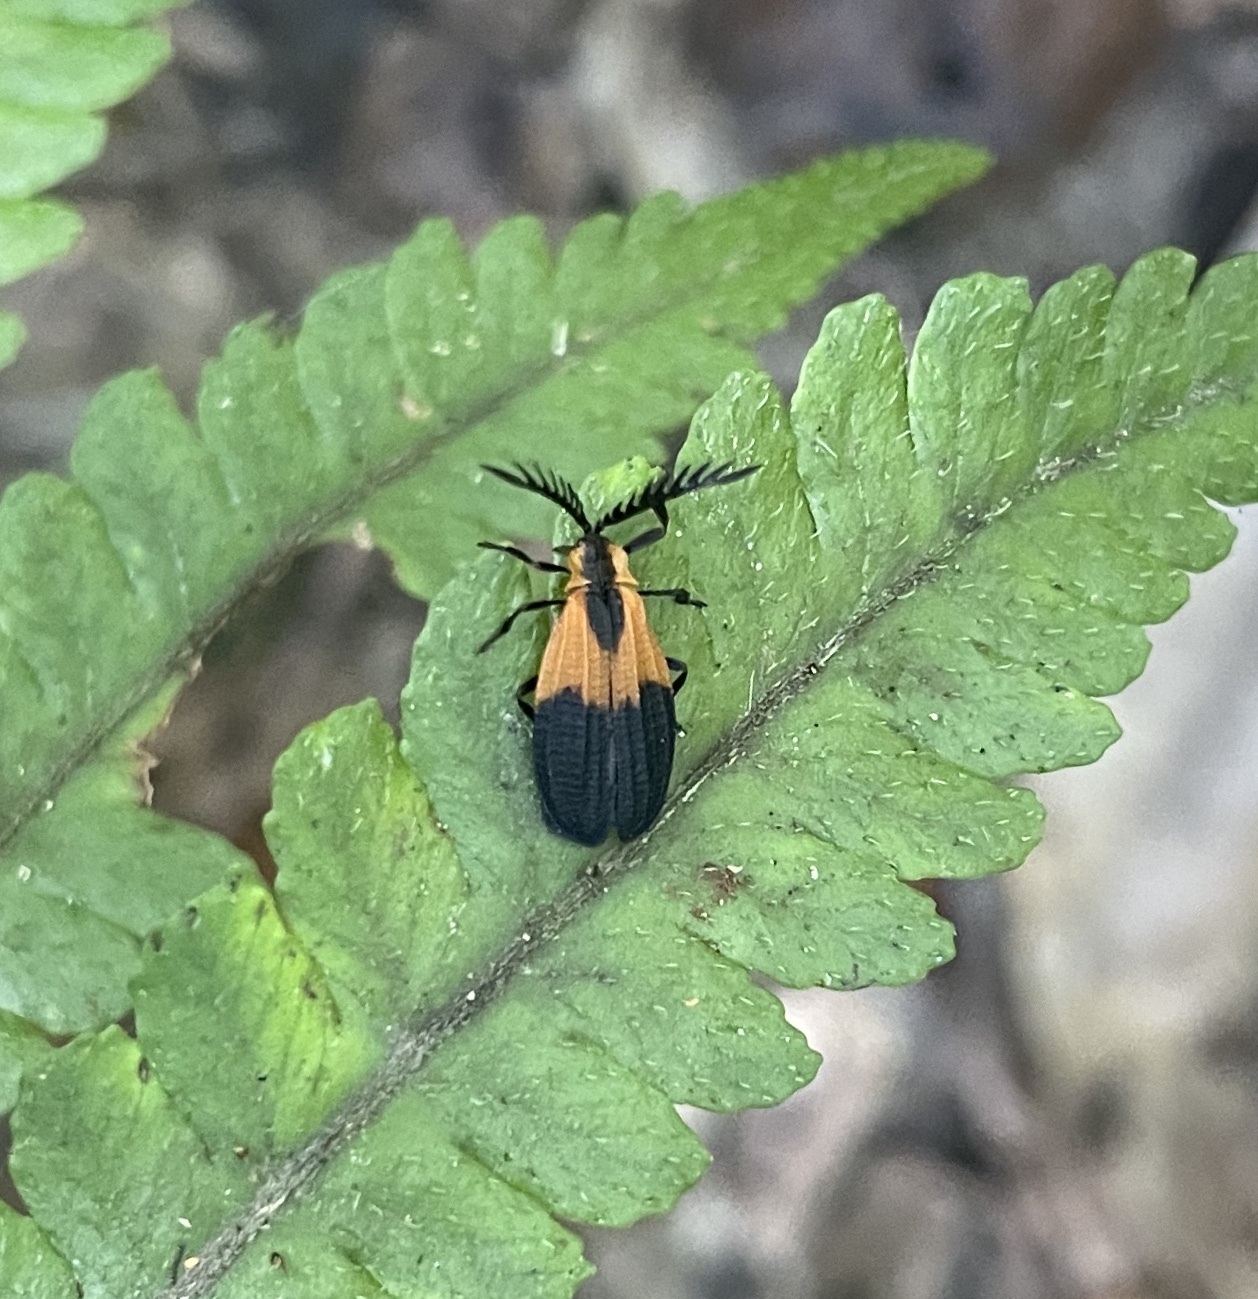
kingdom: Animalia
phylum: Arthropoda
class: Insecta
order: Coleoptera
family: Lycidae
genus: Caenia
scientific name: Caenia dimidiata
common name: Terminal net-winged beetle
